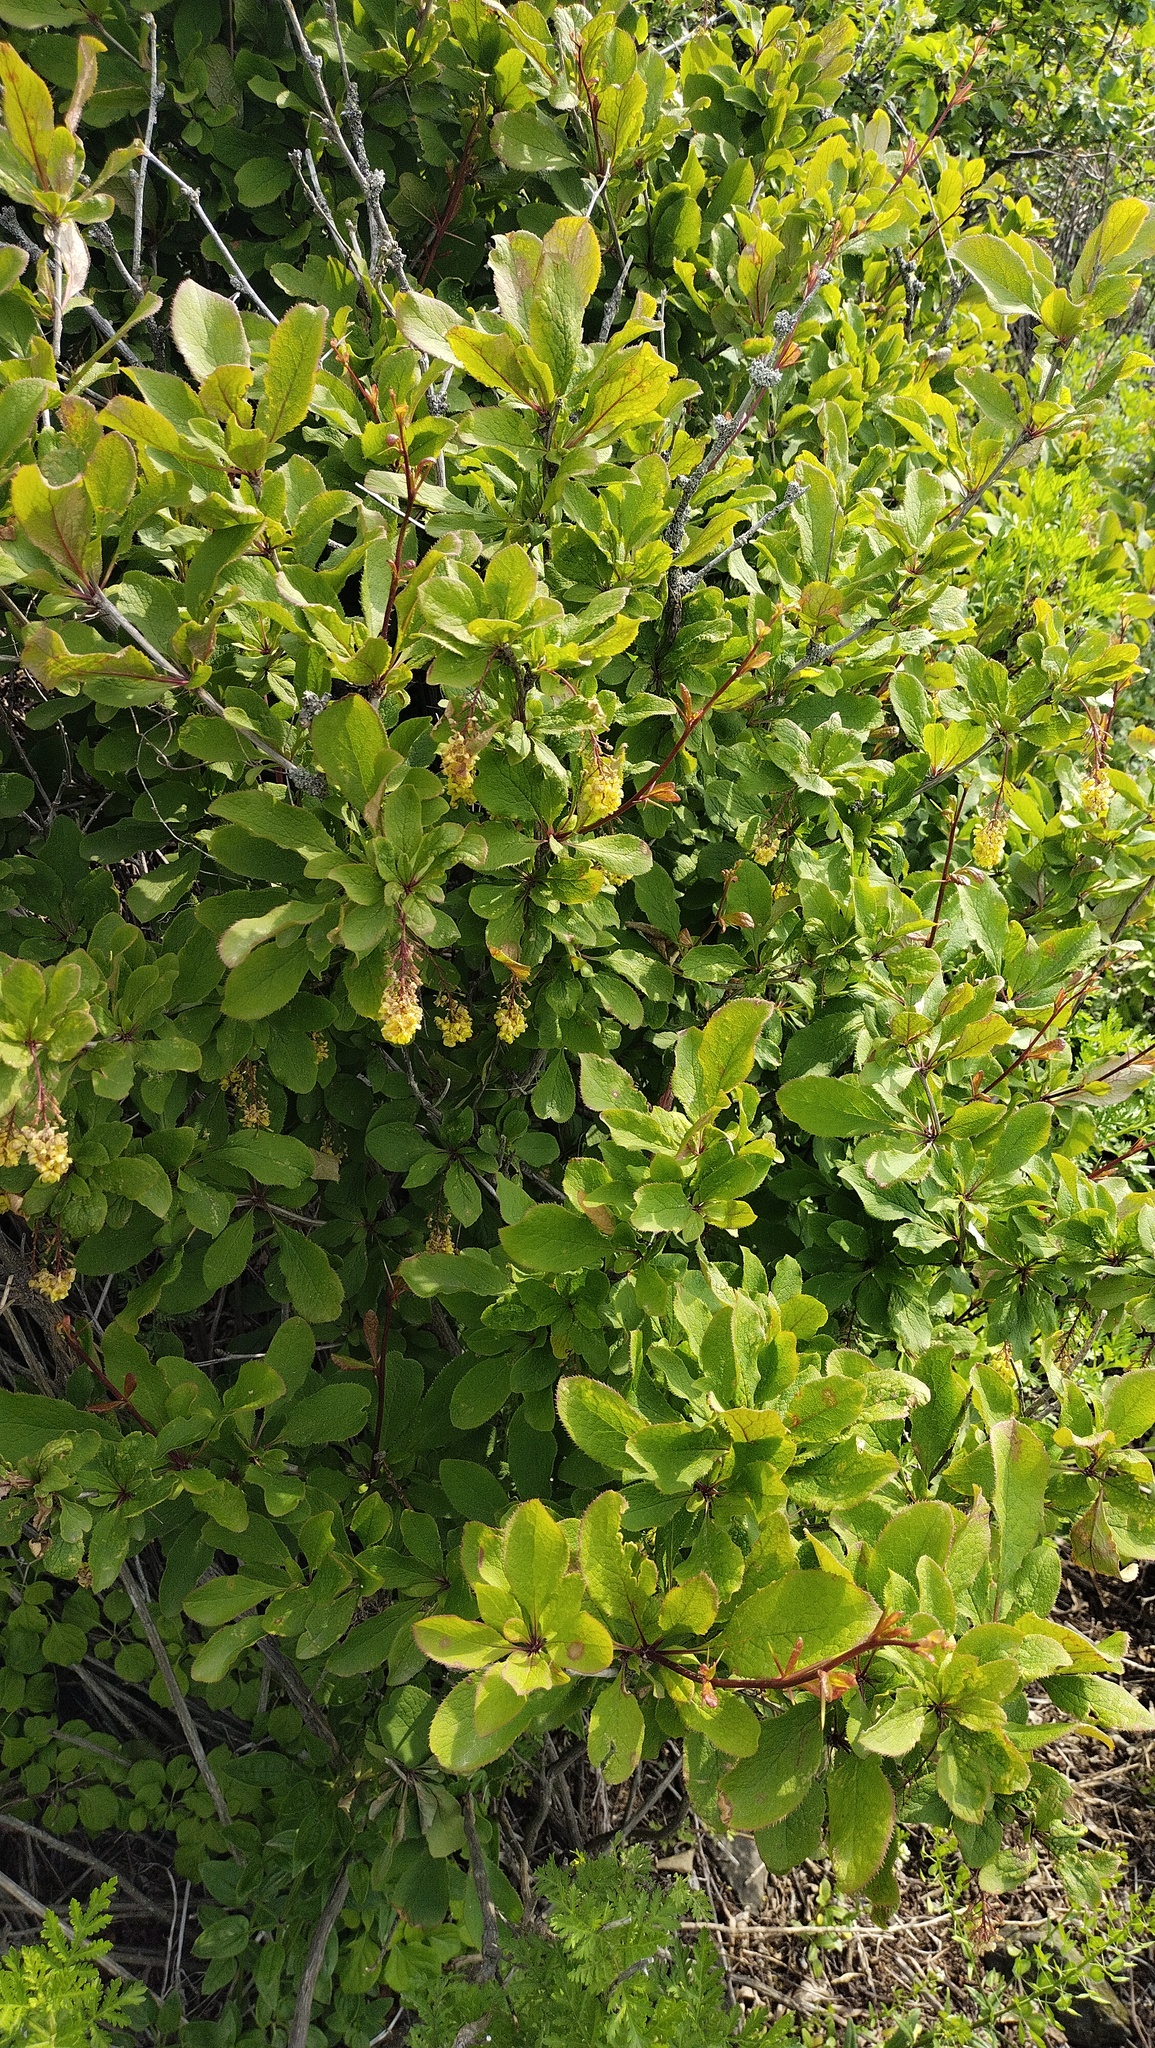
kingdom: Plantae
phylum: Tracheophyta
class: Magnoliopsida
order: Ranunculales
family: Berberidaceae
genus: Berberis
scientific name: Berberis amurensis
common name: Amur barberry
